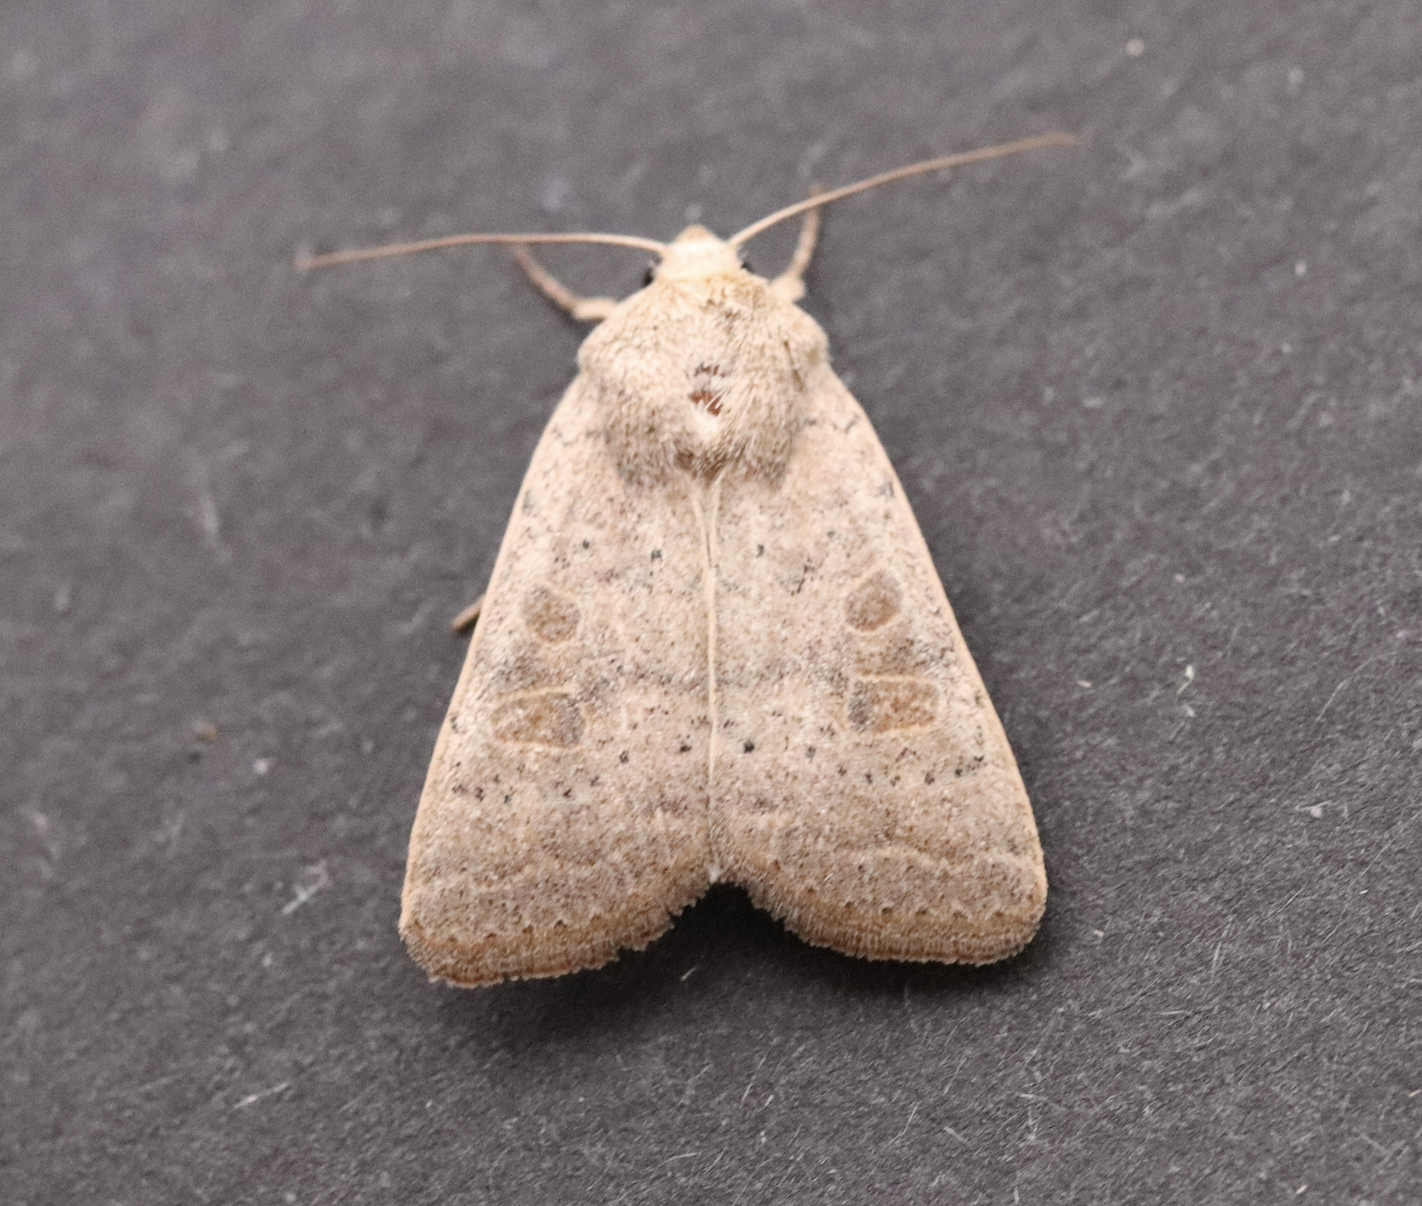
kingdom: Animalia
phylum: Arthropoda
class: Insecta
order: Lepidoptera
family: Noctuidae
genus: Hoplodrina
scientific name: Hoplodrina ambigua
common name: Vine's rustic
